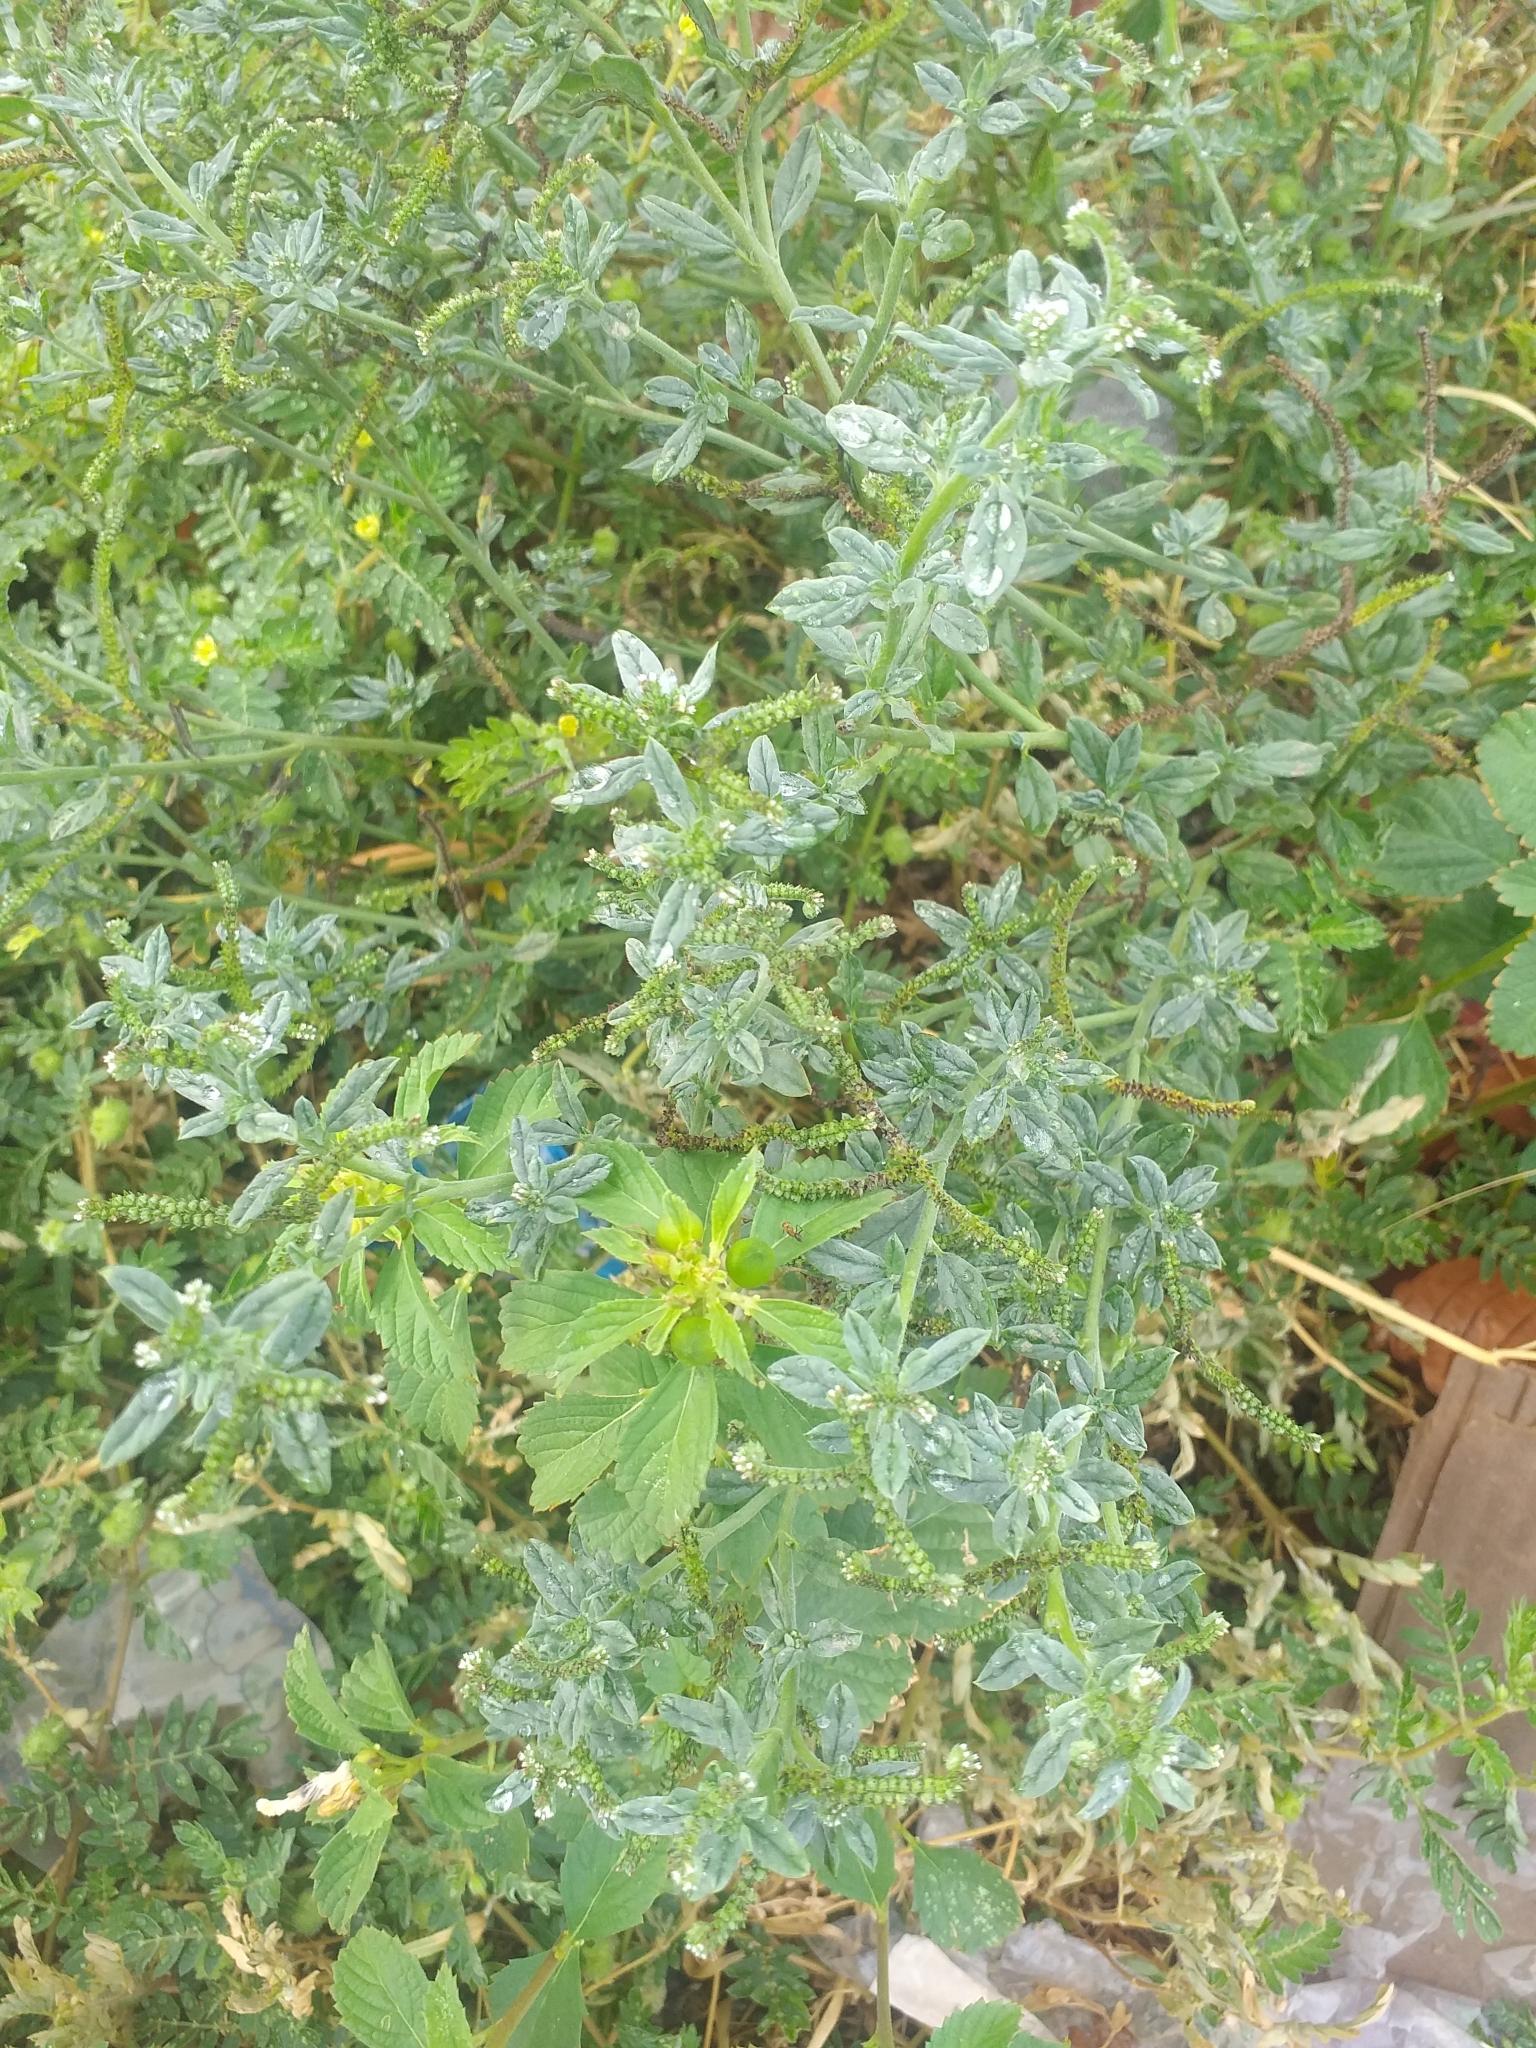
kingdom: Plantae
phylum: Tracheophyta
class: Magnoliopsida
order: Boraginales
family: Heliotropiaceae
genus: Euploca
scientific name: Euploca procumbens
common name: Fourspike heliotrope
